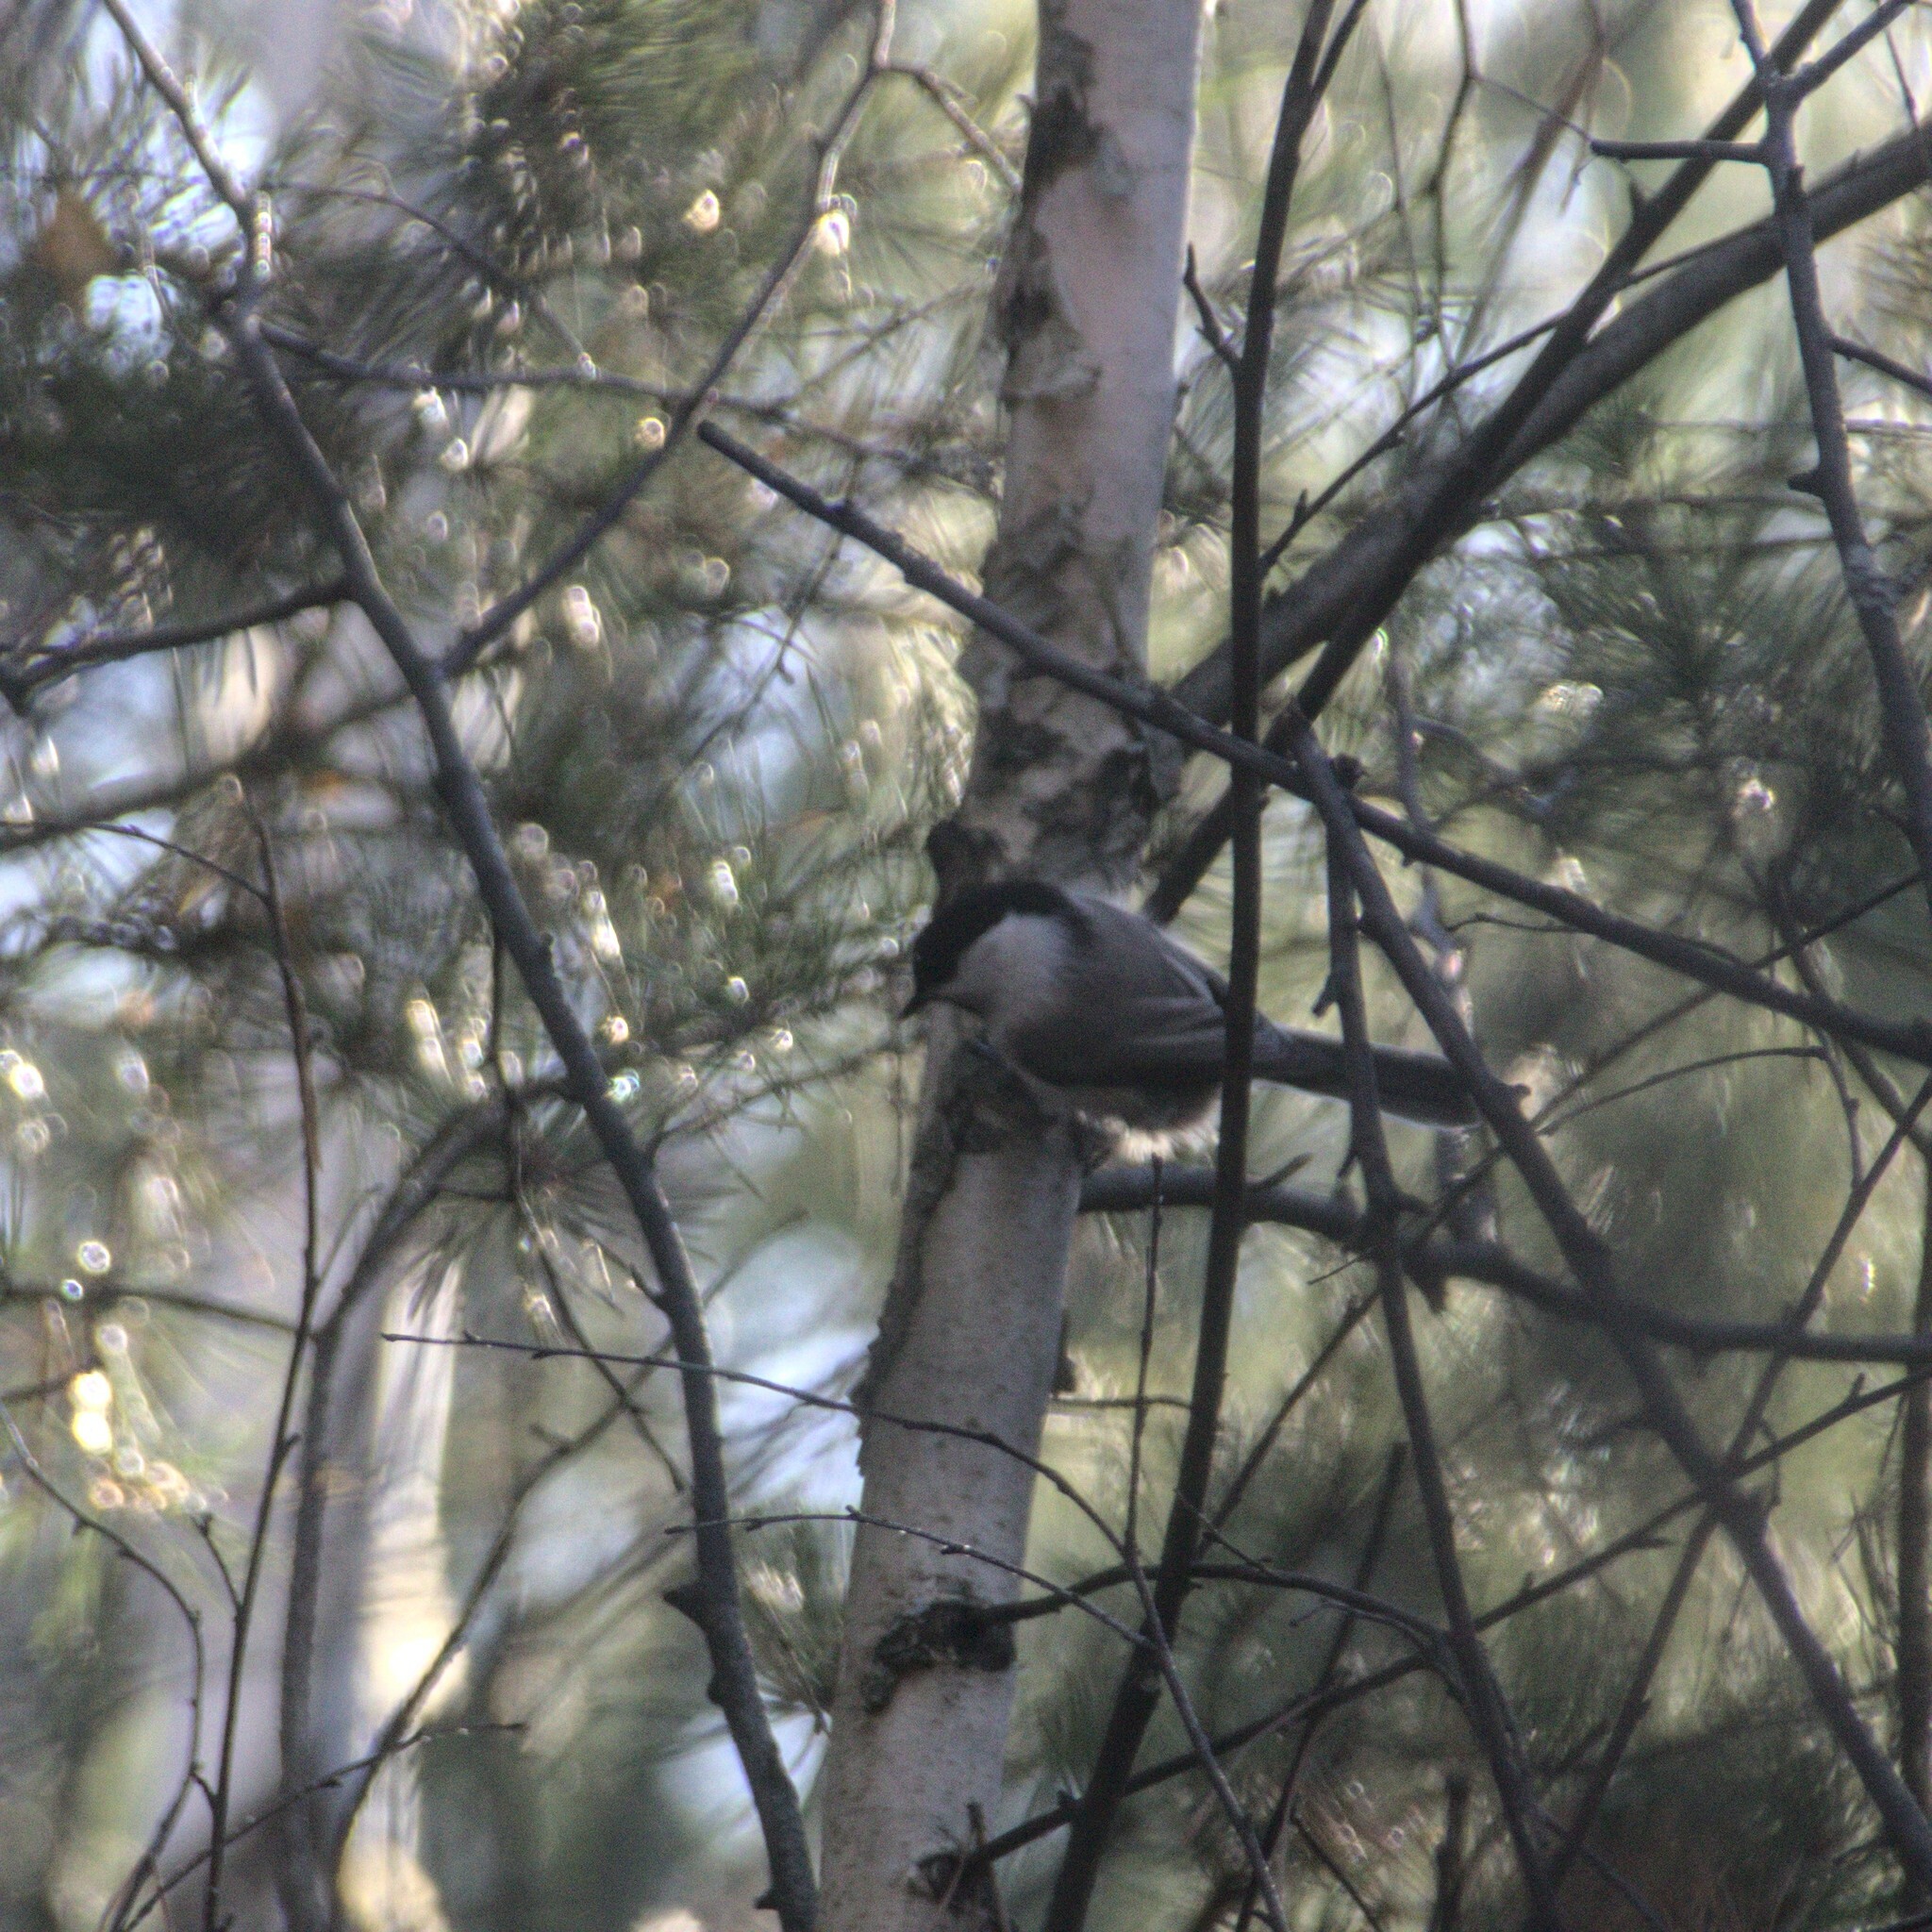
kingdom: Animalia
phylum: Chordata
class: Aves
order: Passeriformes
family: Paridae
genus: Poecile
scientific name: Poecile montanus
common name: Willow tit
